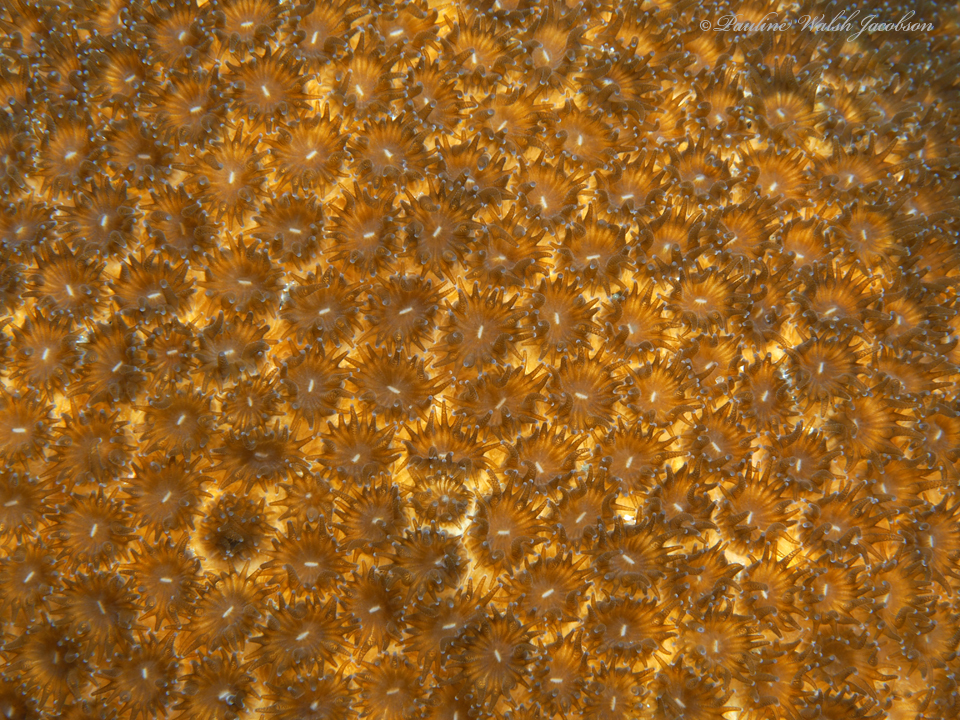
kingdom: Animalia
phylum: Cnidaria
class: Anthozoa
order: Scleractinia
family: Faviidae
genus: Solenastrea
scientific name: Solenastrea bournoni
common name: Smooth star coral
